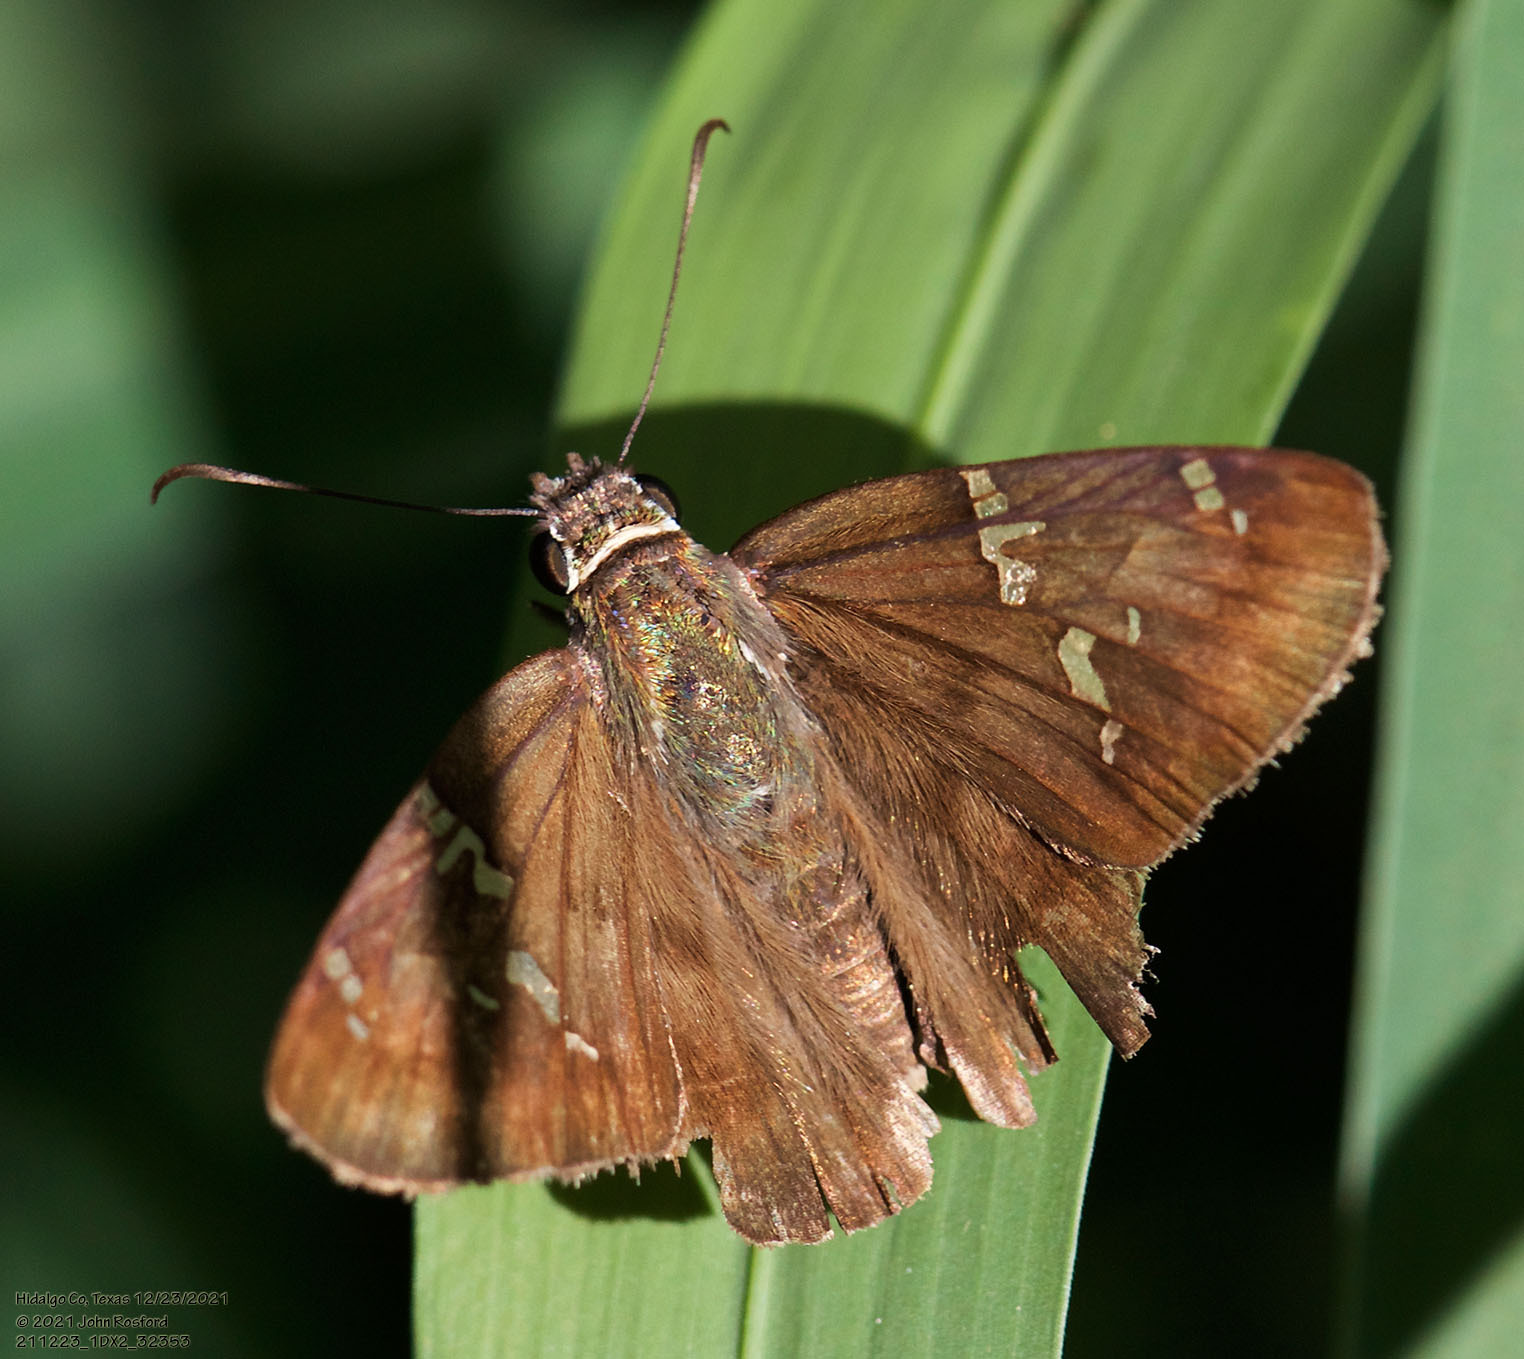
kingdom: Animalia
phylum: Arthropoda
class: Insecta
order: Lepidoptera
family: Hesperiidae
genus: Autochton
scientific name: Autochton potrillo
